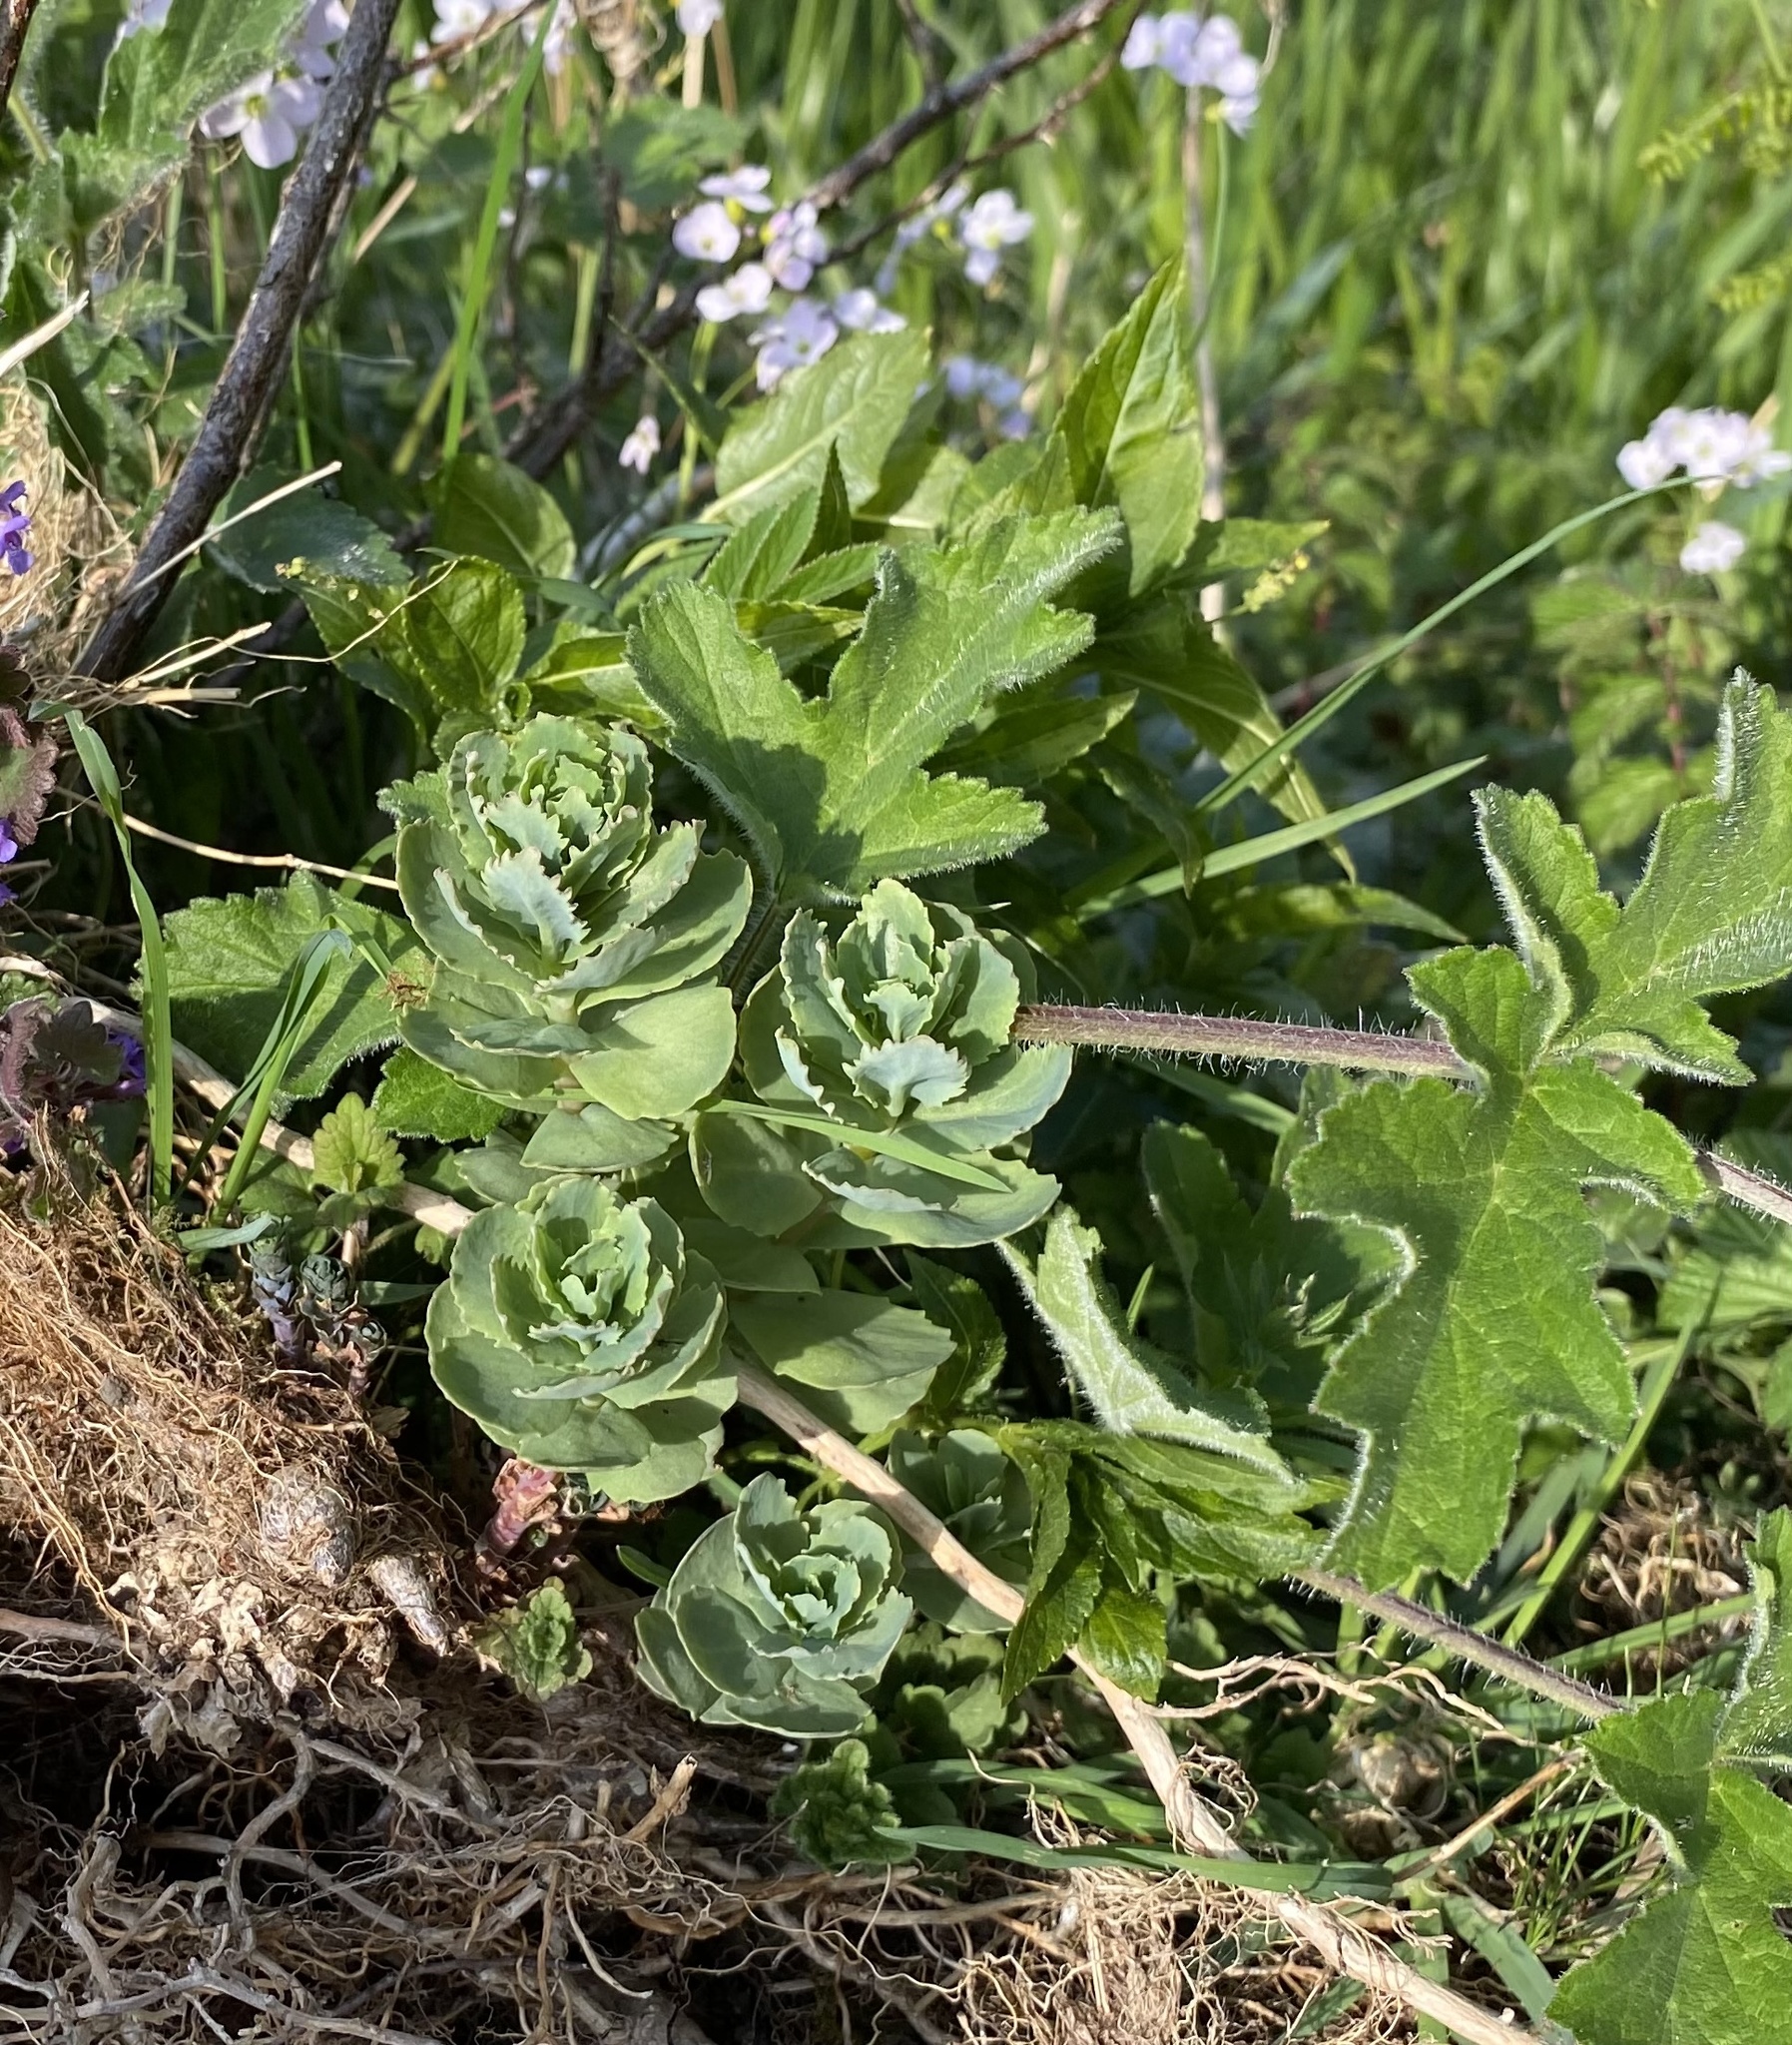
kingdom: Plantae
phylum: Tracheophyta
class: Magnoliopsida
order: Saxifragales
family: Crassulaceae
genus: Hylotelephium
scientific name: Hylotelephium telephium
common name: Live-forever
